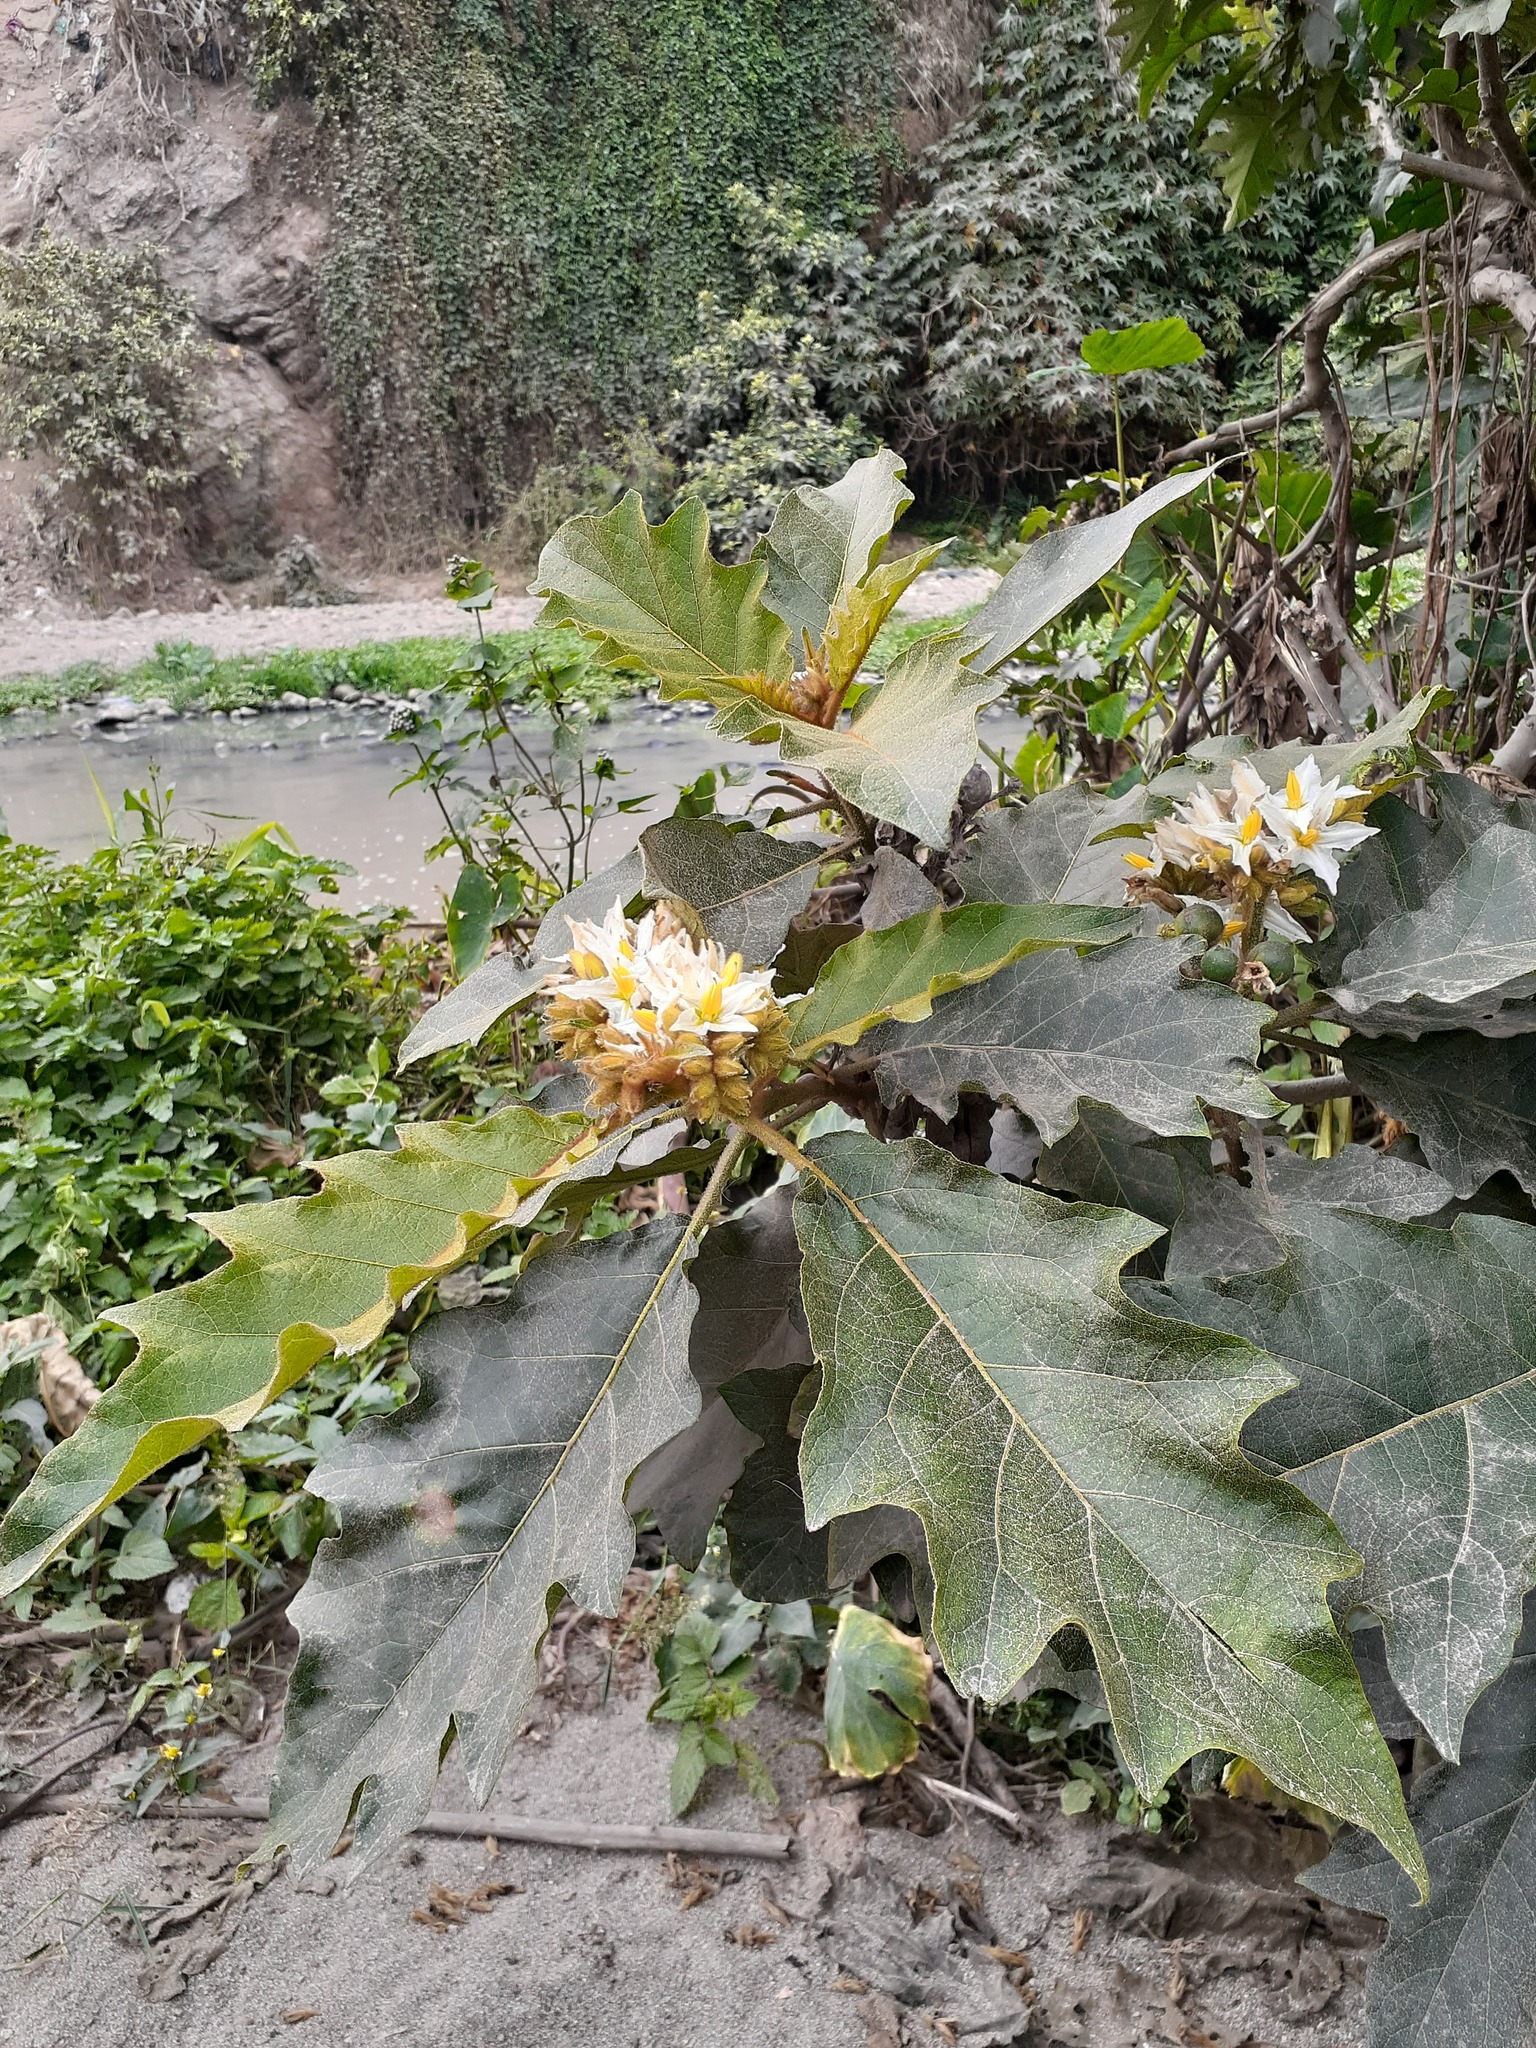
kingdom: Plantae
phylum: Tracheophyta
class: Magnoliopsida
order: Solanales
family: Solanaceae
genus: Solanum
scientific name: Solanum chrysotrichum
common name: Nightshade
